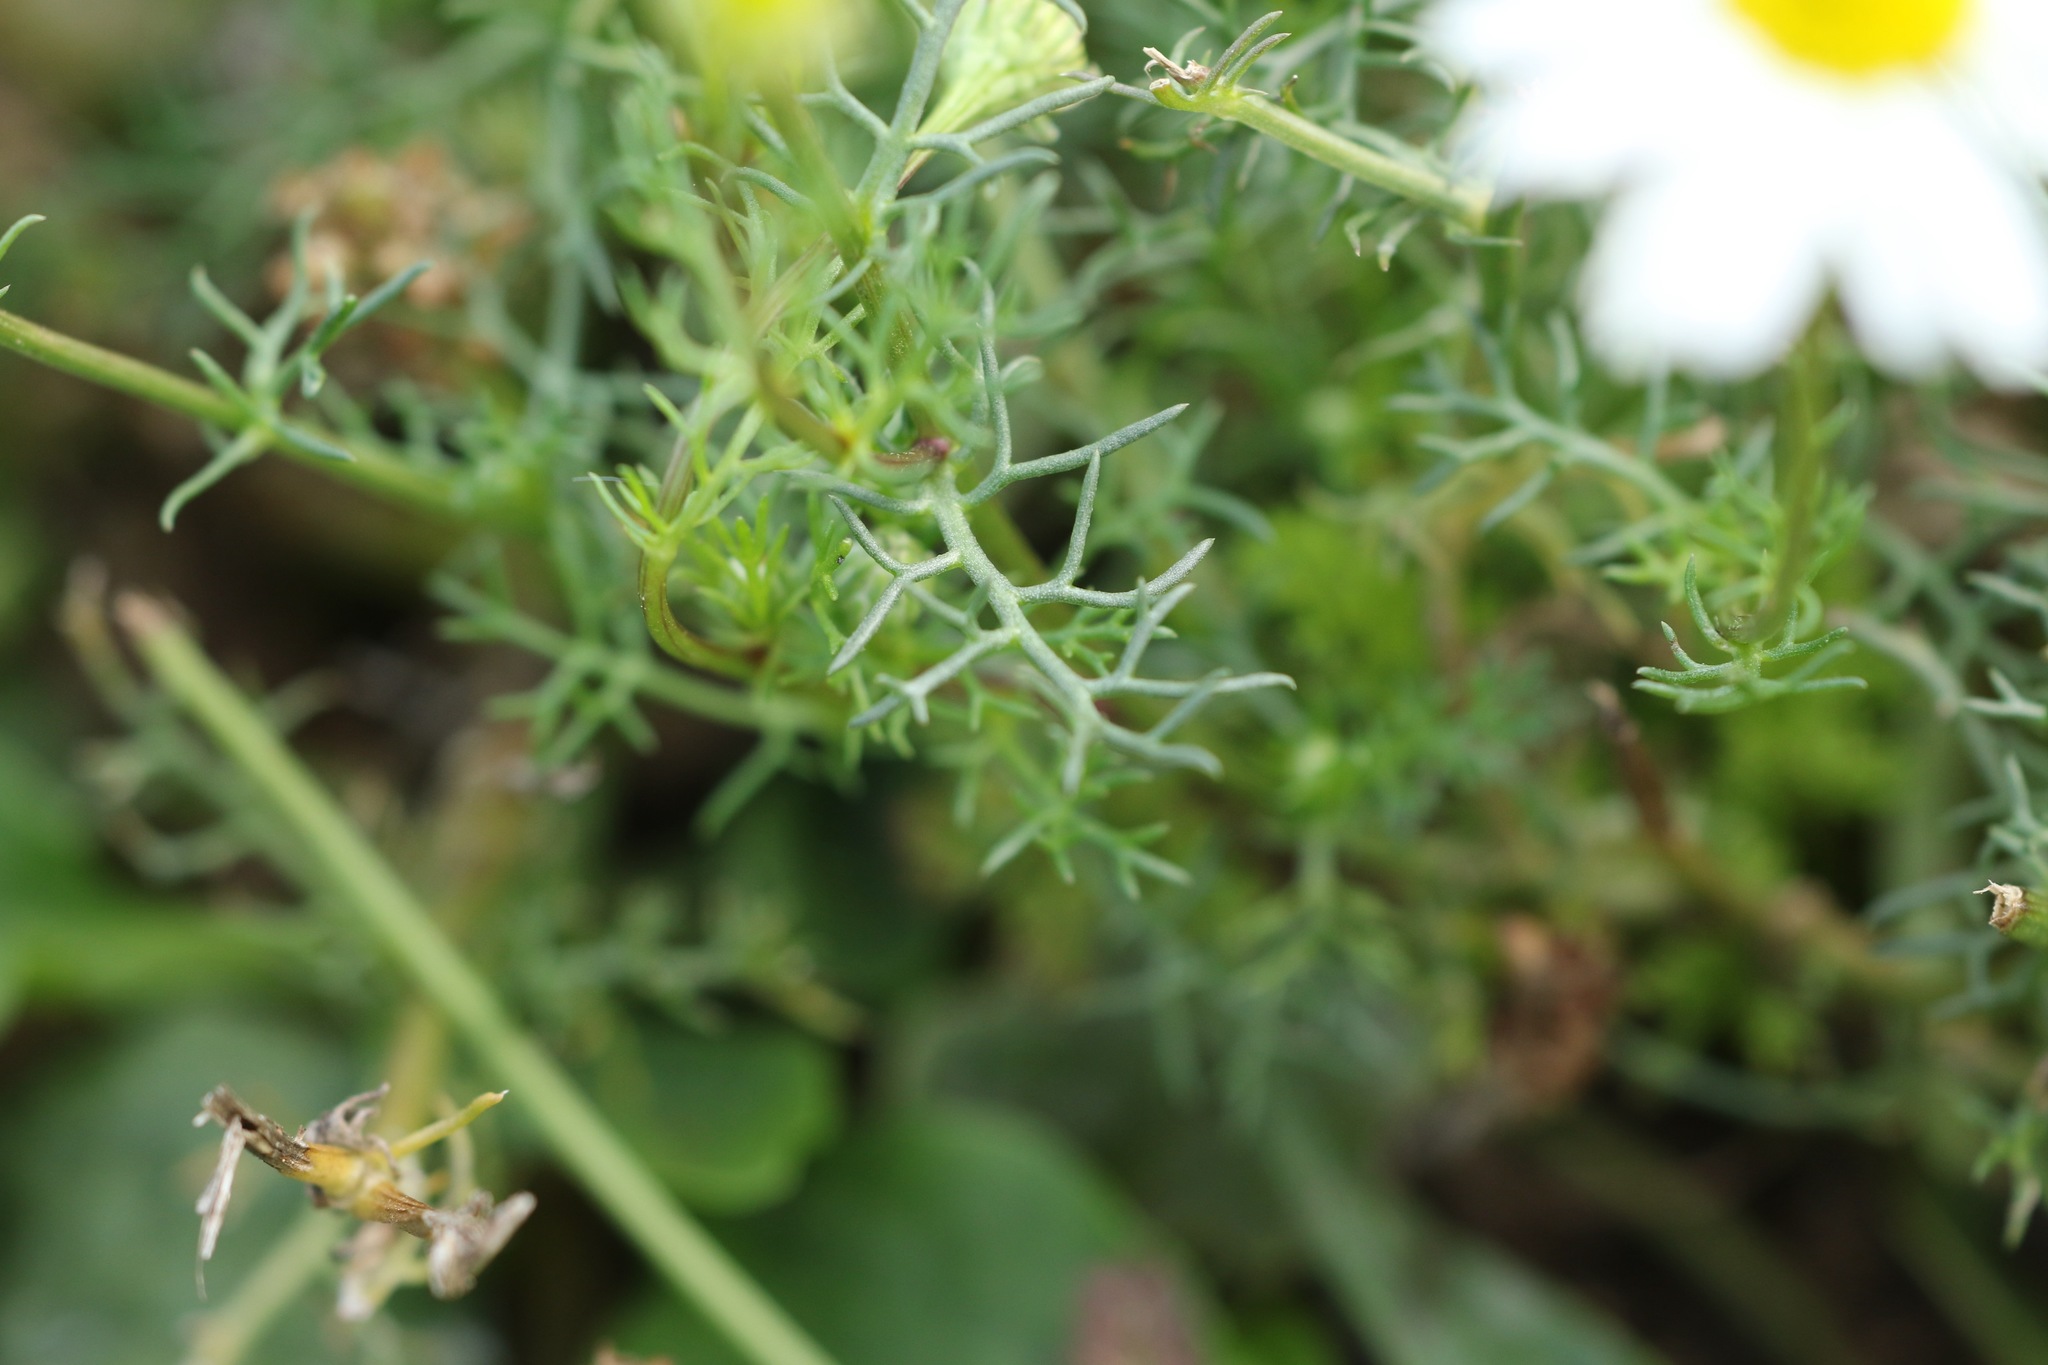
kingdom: Plantae
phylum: Tracheophyta
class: Magnoliopsida
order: Asterales
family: Asteraceae
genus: Tripleurospermum
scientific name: Tripleurospermum inodorum
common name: Scentless mayweed
